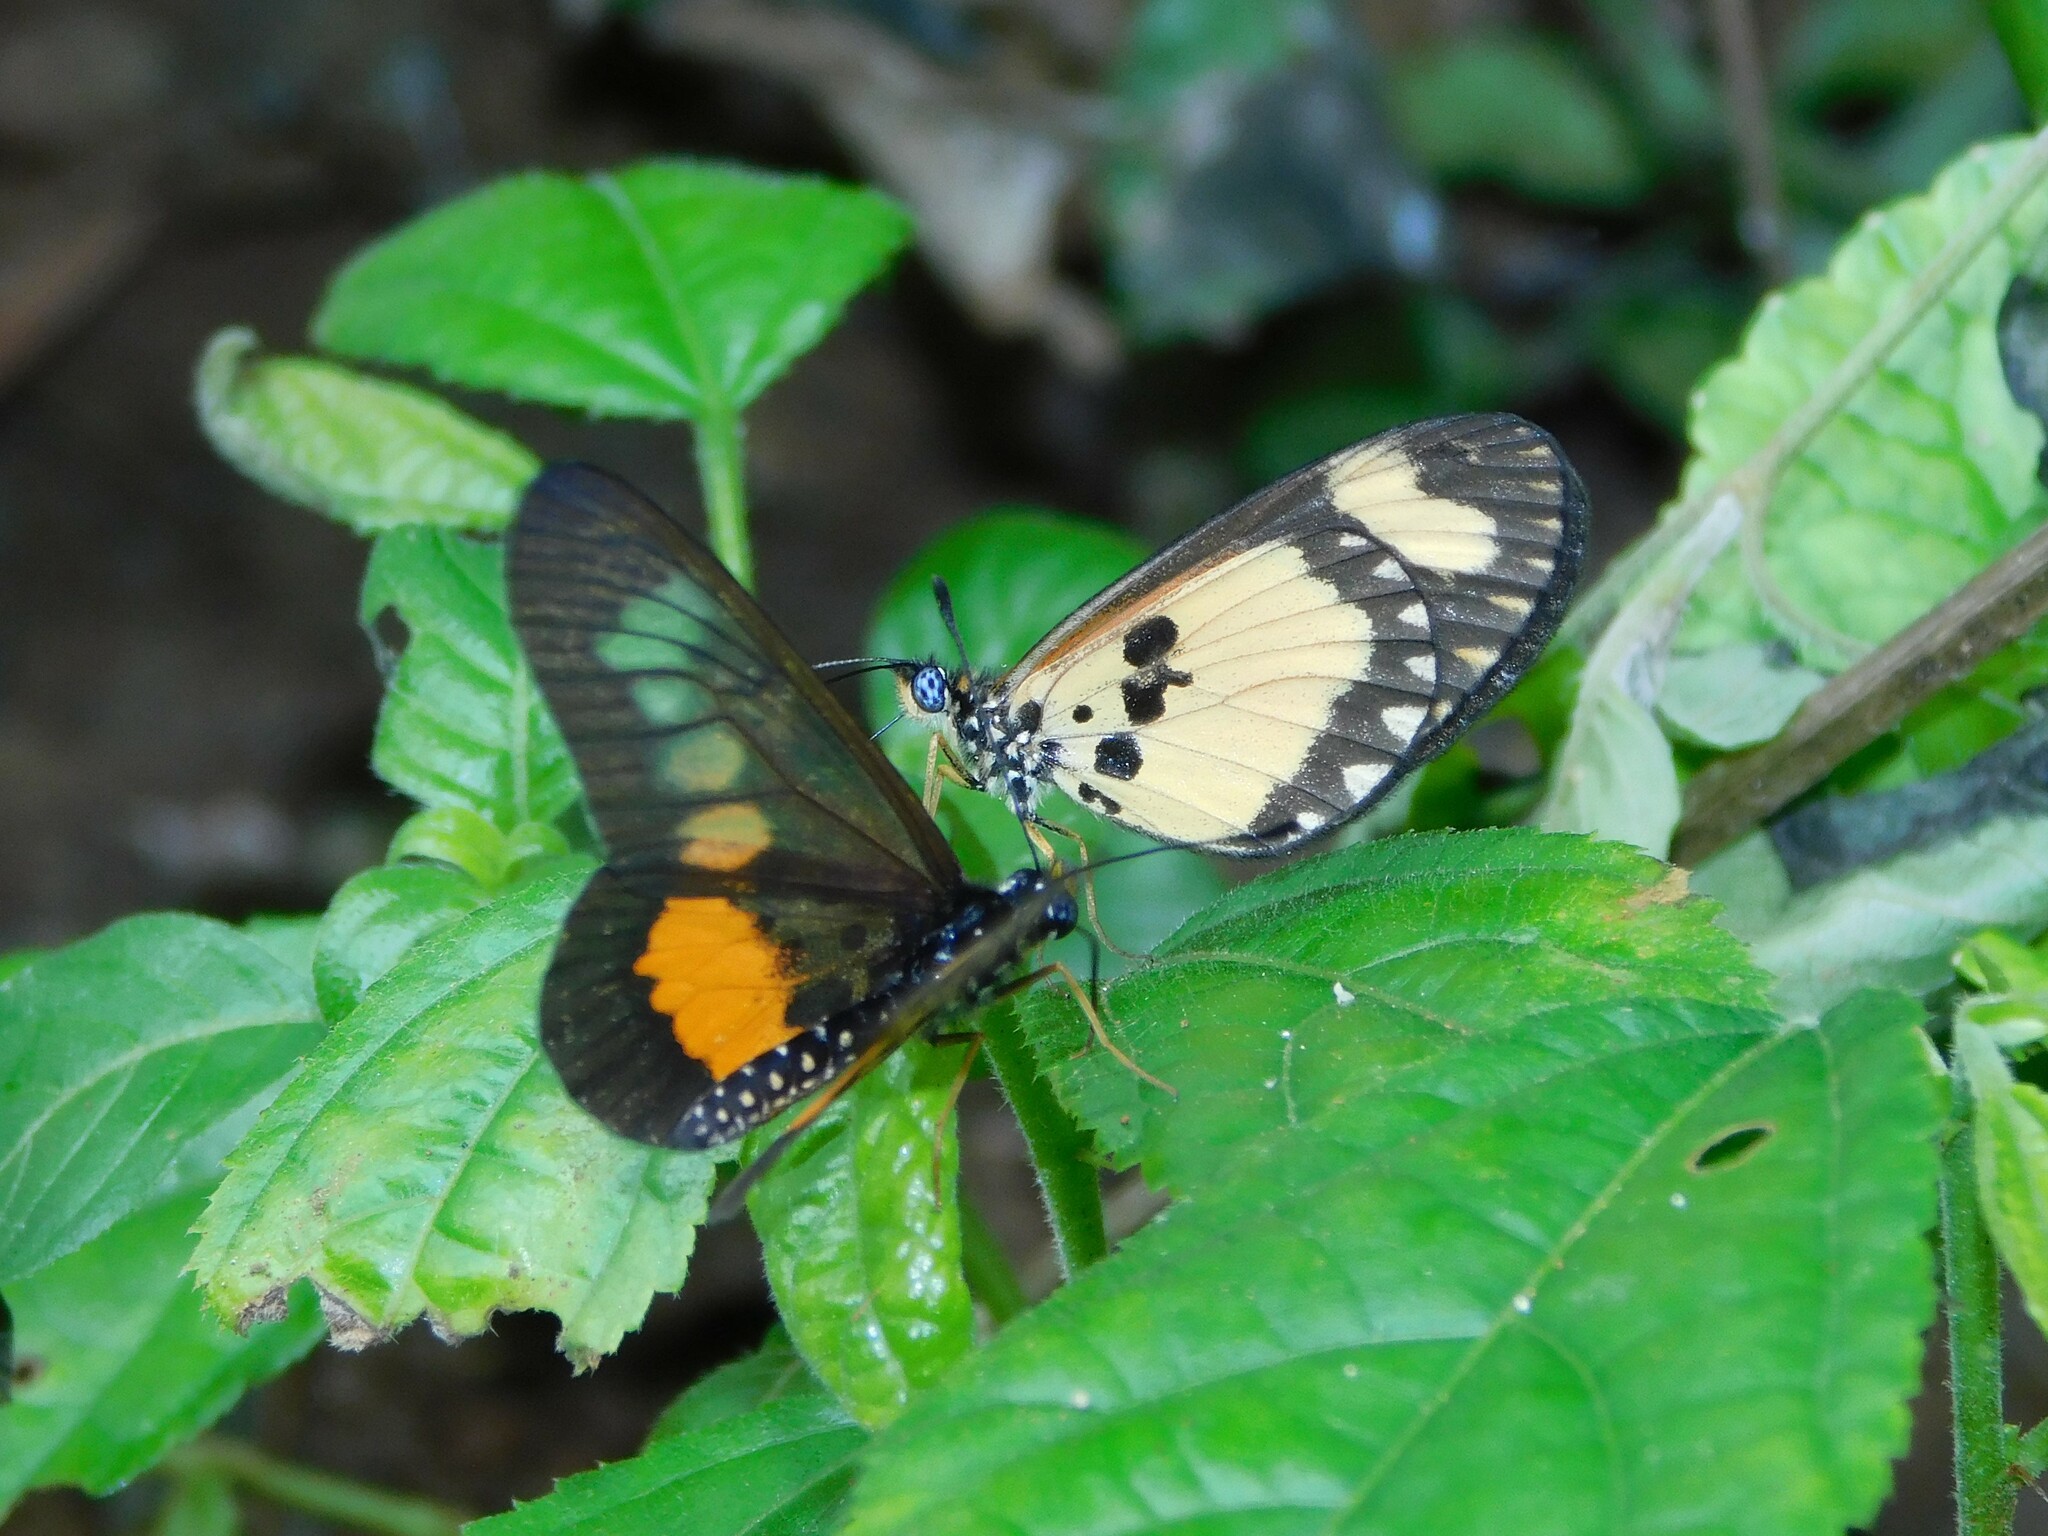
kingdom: Animalia
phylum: Arthropoda
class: Insecta
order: Lepidoptera
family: Nymphalidae
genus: Acraea
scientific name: Acraea
